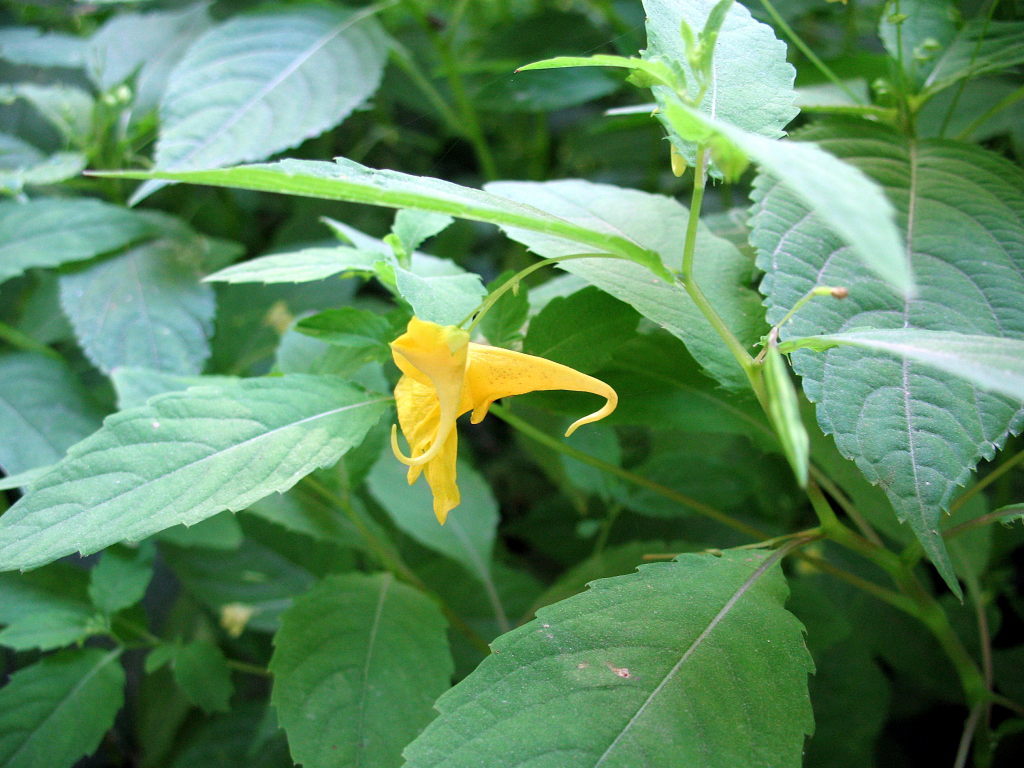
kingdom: Plantae
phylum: Tracheophyta
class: Magnoliopsida
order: Ericales
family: Balsaminaceae
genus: Impatiens
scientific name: Impatiens noli-tangere
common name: Touch-me-not balsam
